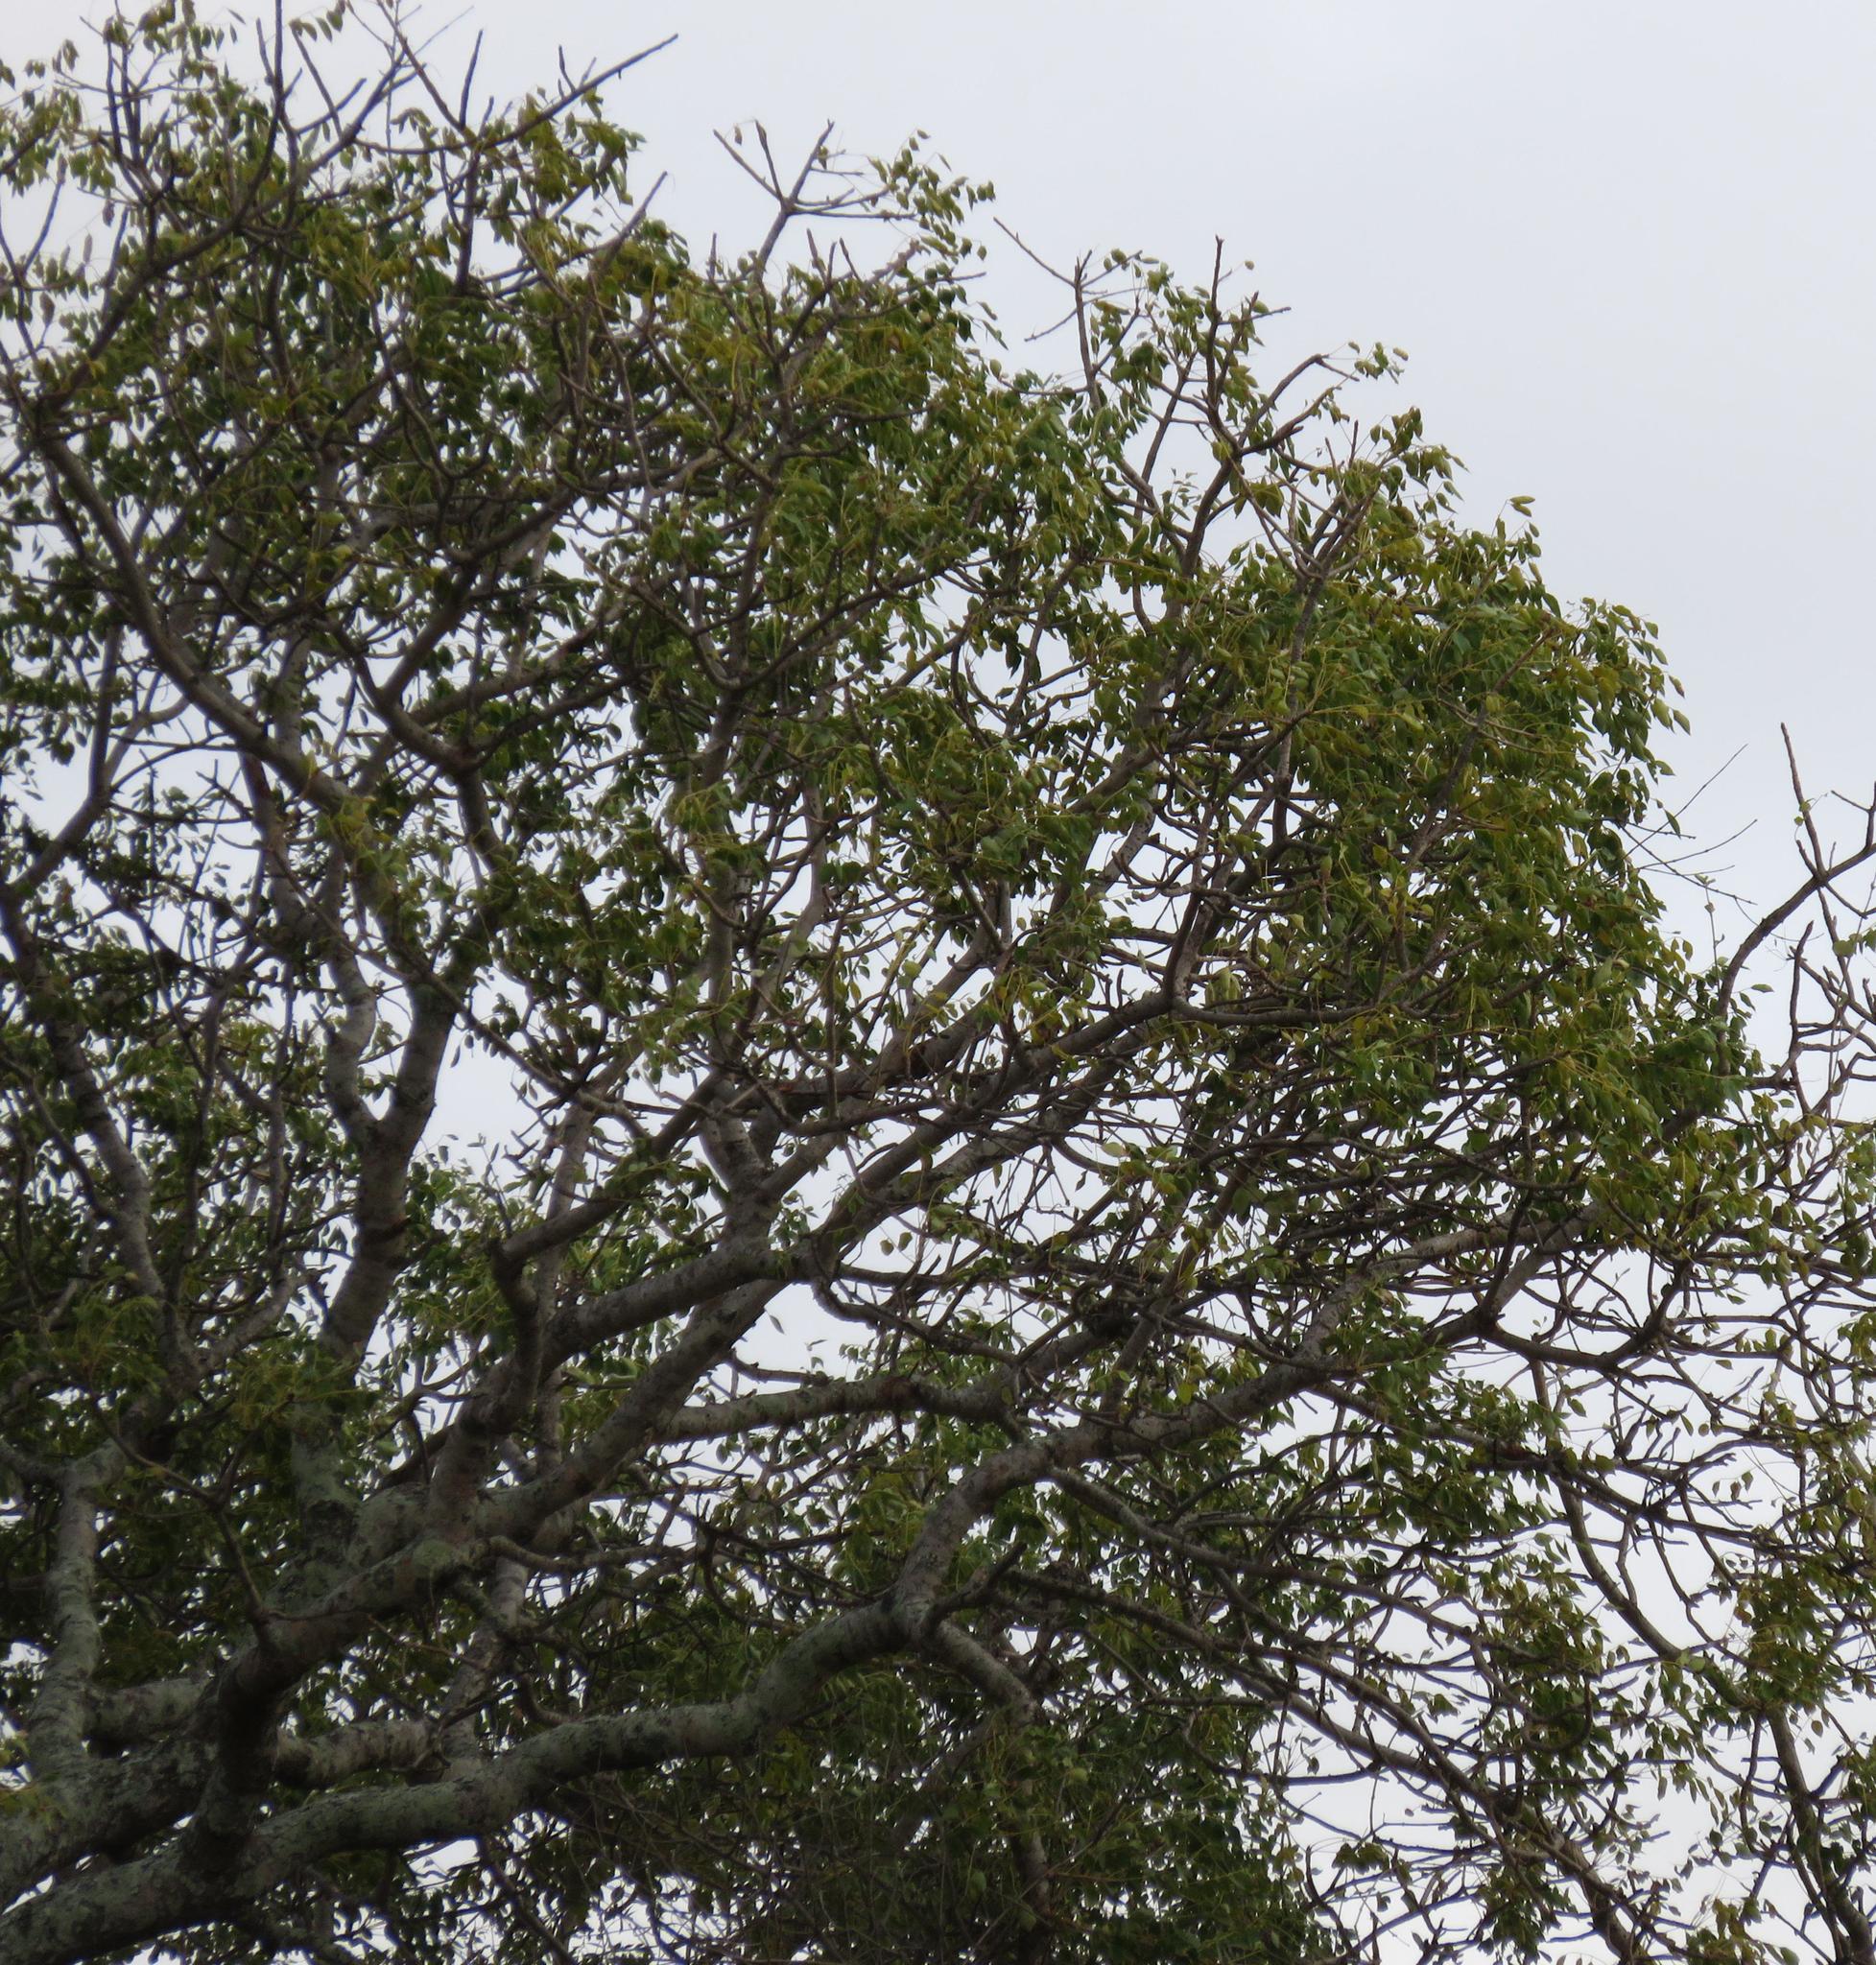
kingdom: Plantae
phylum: Tracheophyta
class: Magnoliopsida
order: Sapindales
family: Anacardiaceae
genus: Sclerocarya
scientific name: Sclerocarya birrea
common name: Marula
